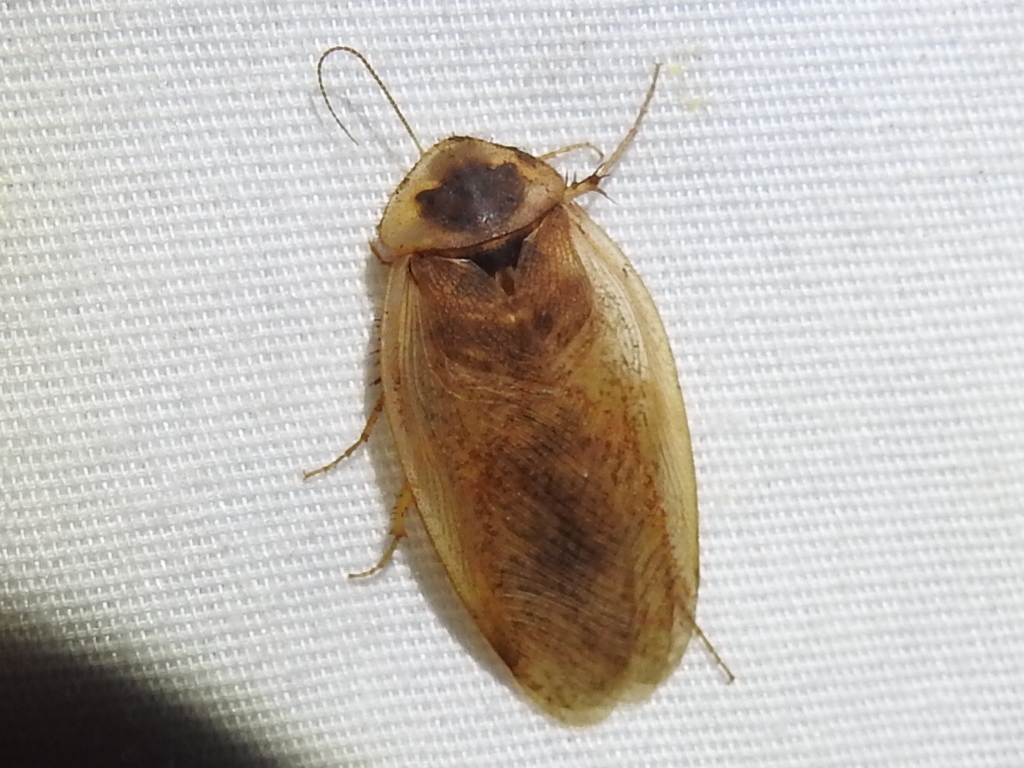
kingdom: Animalia
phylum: Arthropoda
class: Insecta
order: Blattodea
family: Corydiidae
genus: Arenivaga
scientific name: Arenivaga bolliana
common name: Boll's sand cockroach
